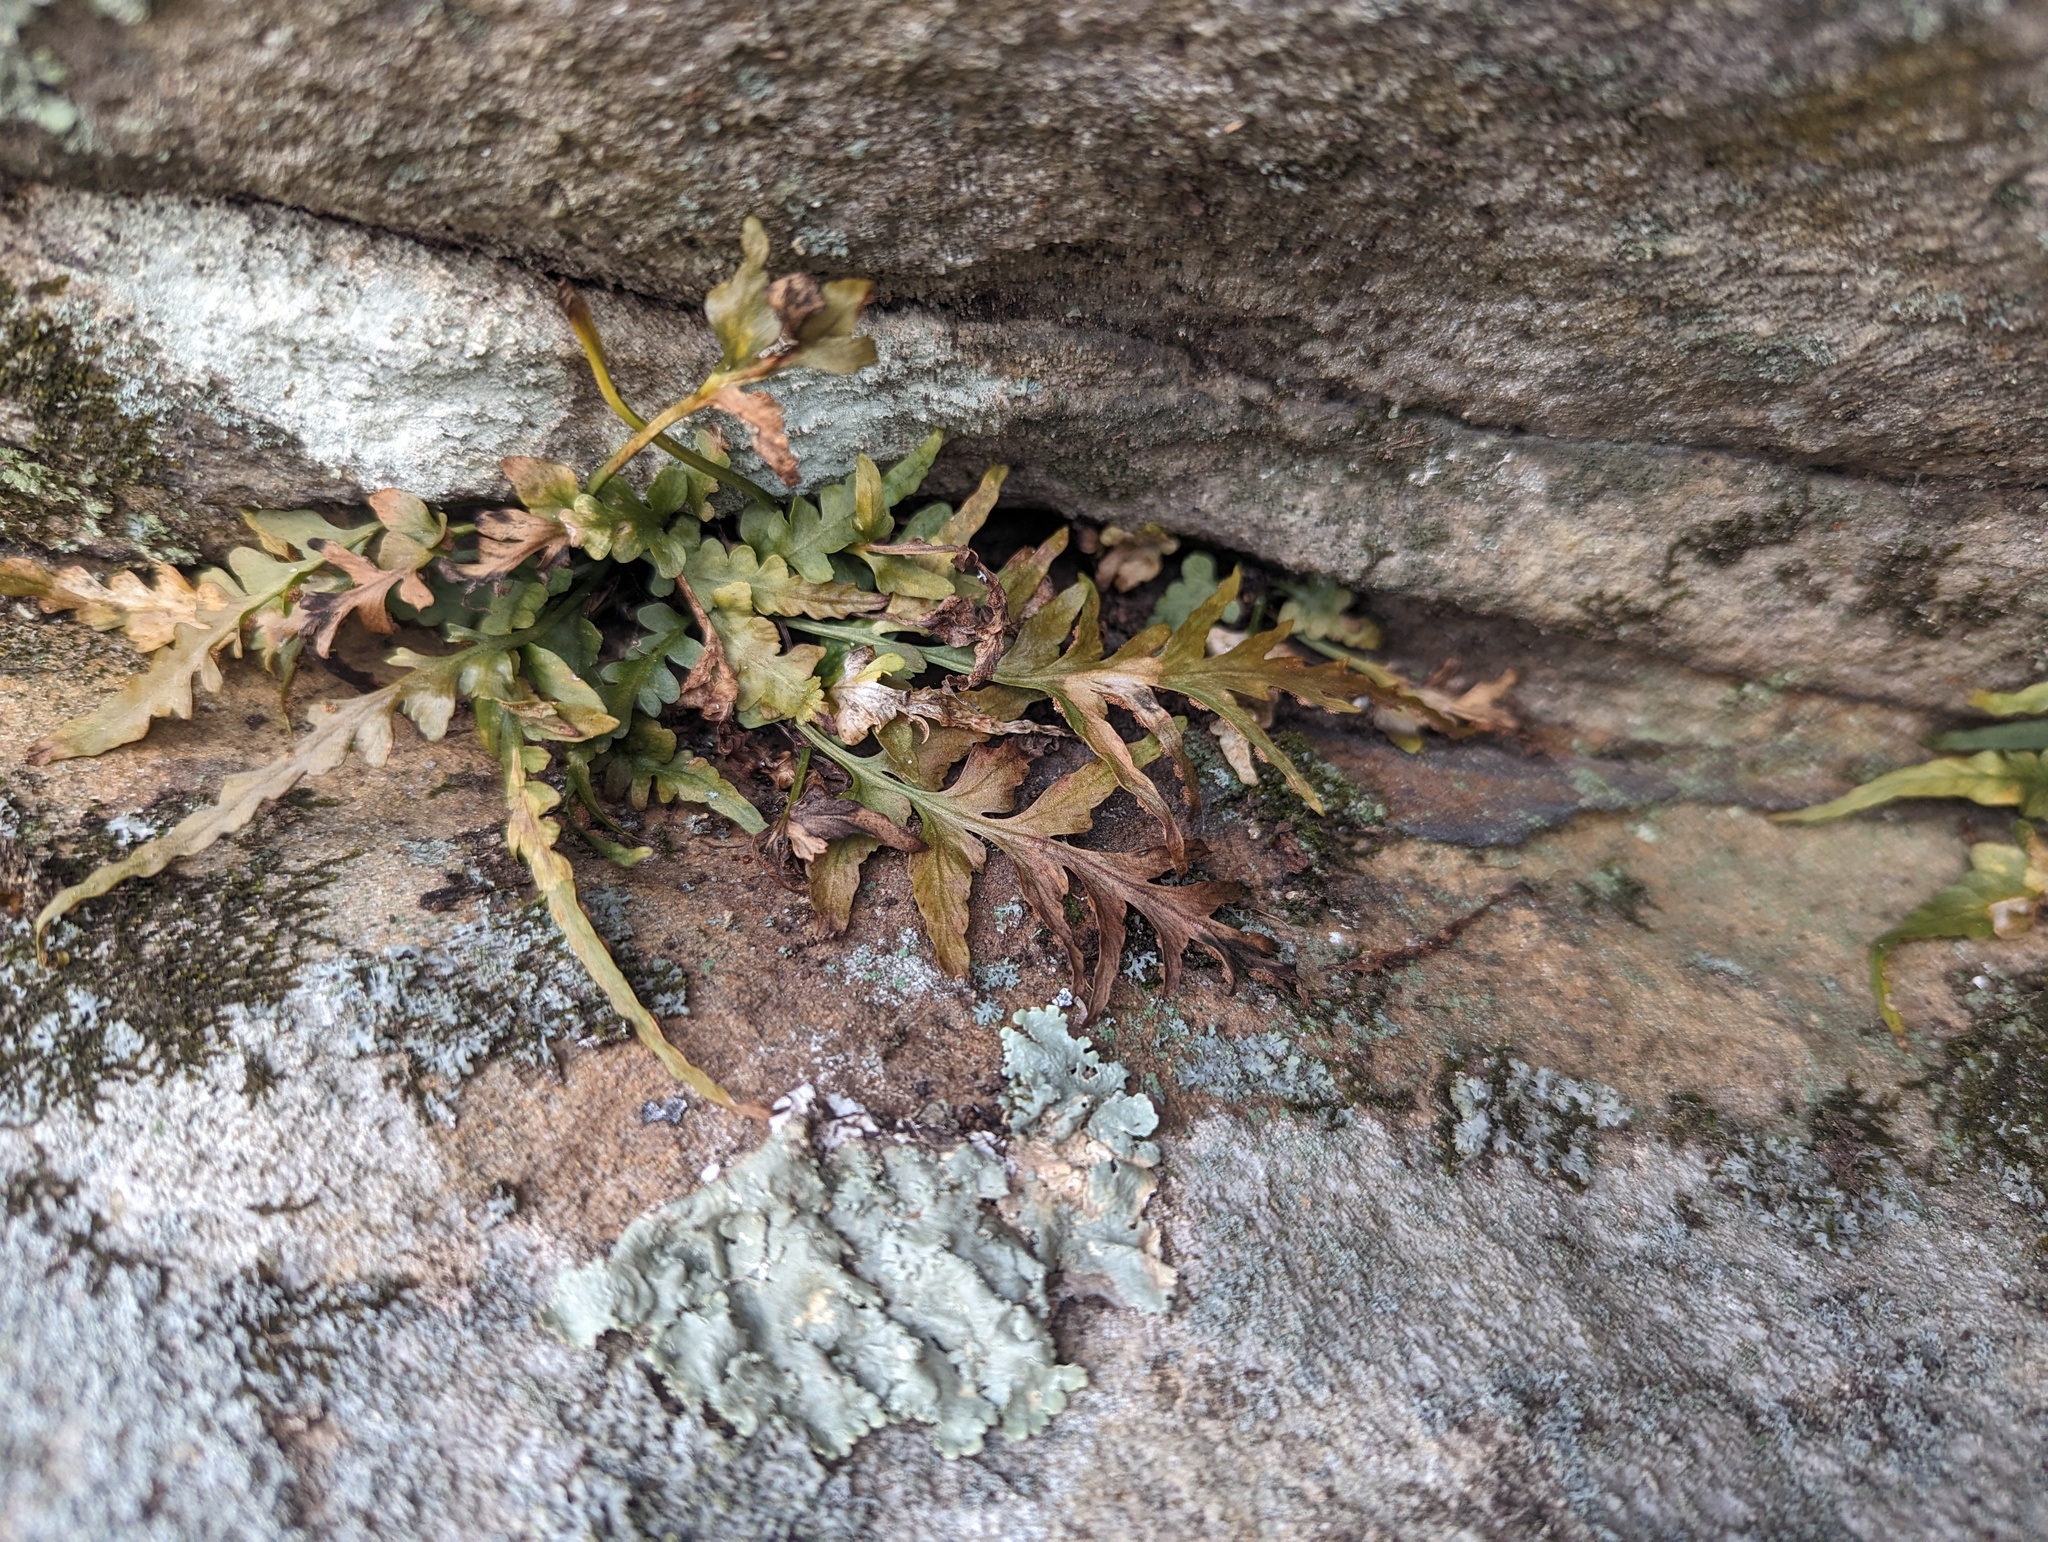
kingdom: Plantae
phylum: Tracheophyta
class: Polypodiopsida
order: Polypodiales
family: Aspleniaceae
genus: Asplenium
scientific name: Asplenium pinnatifidum
